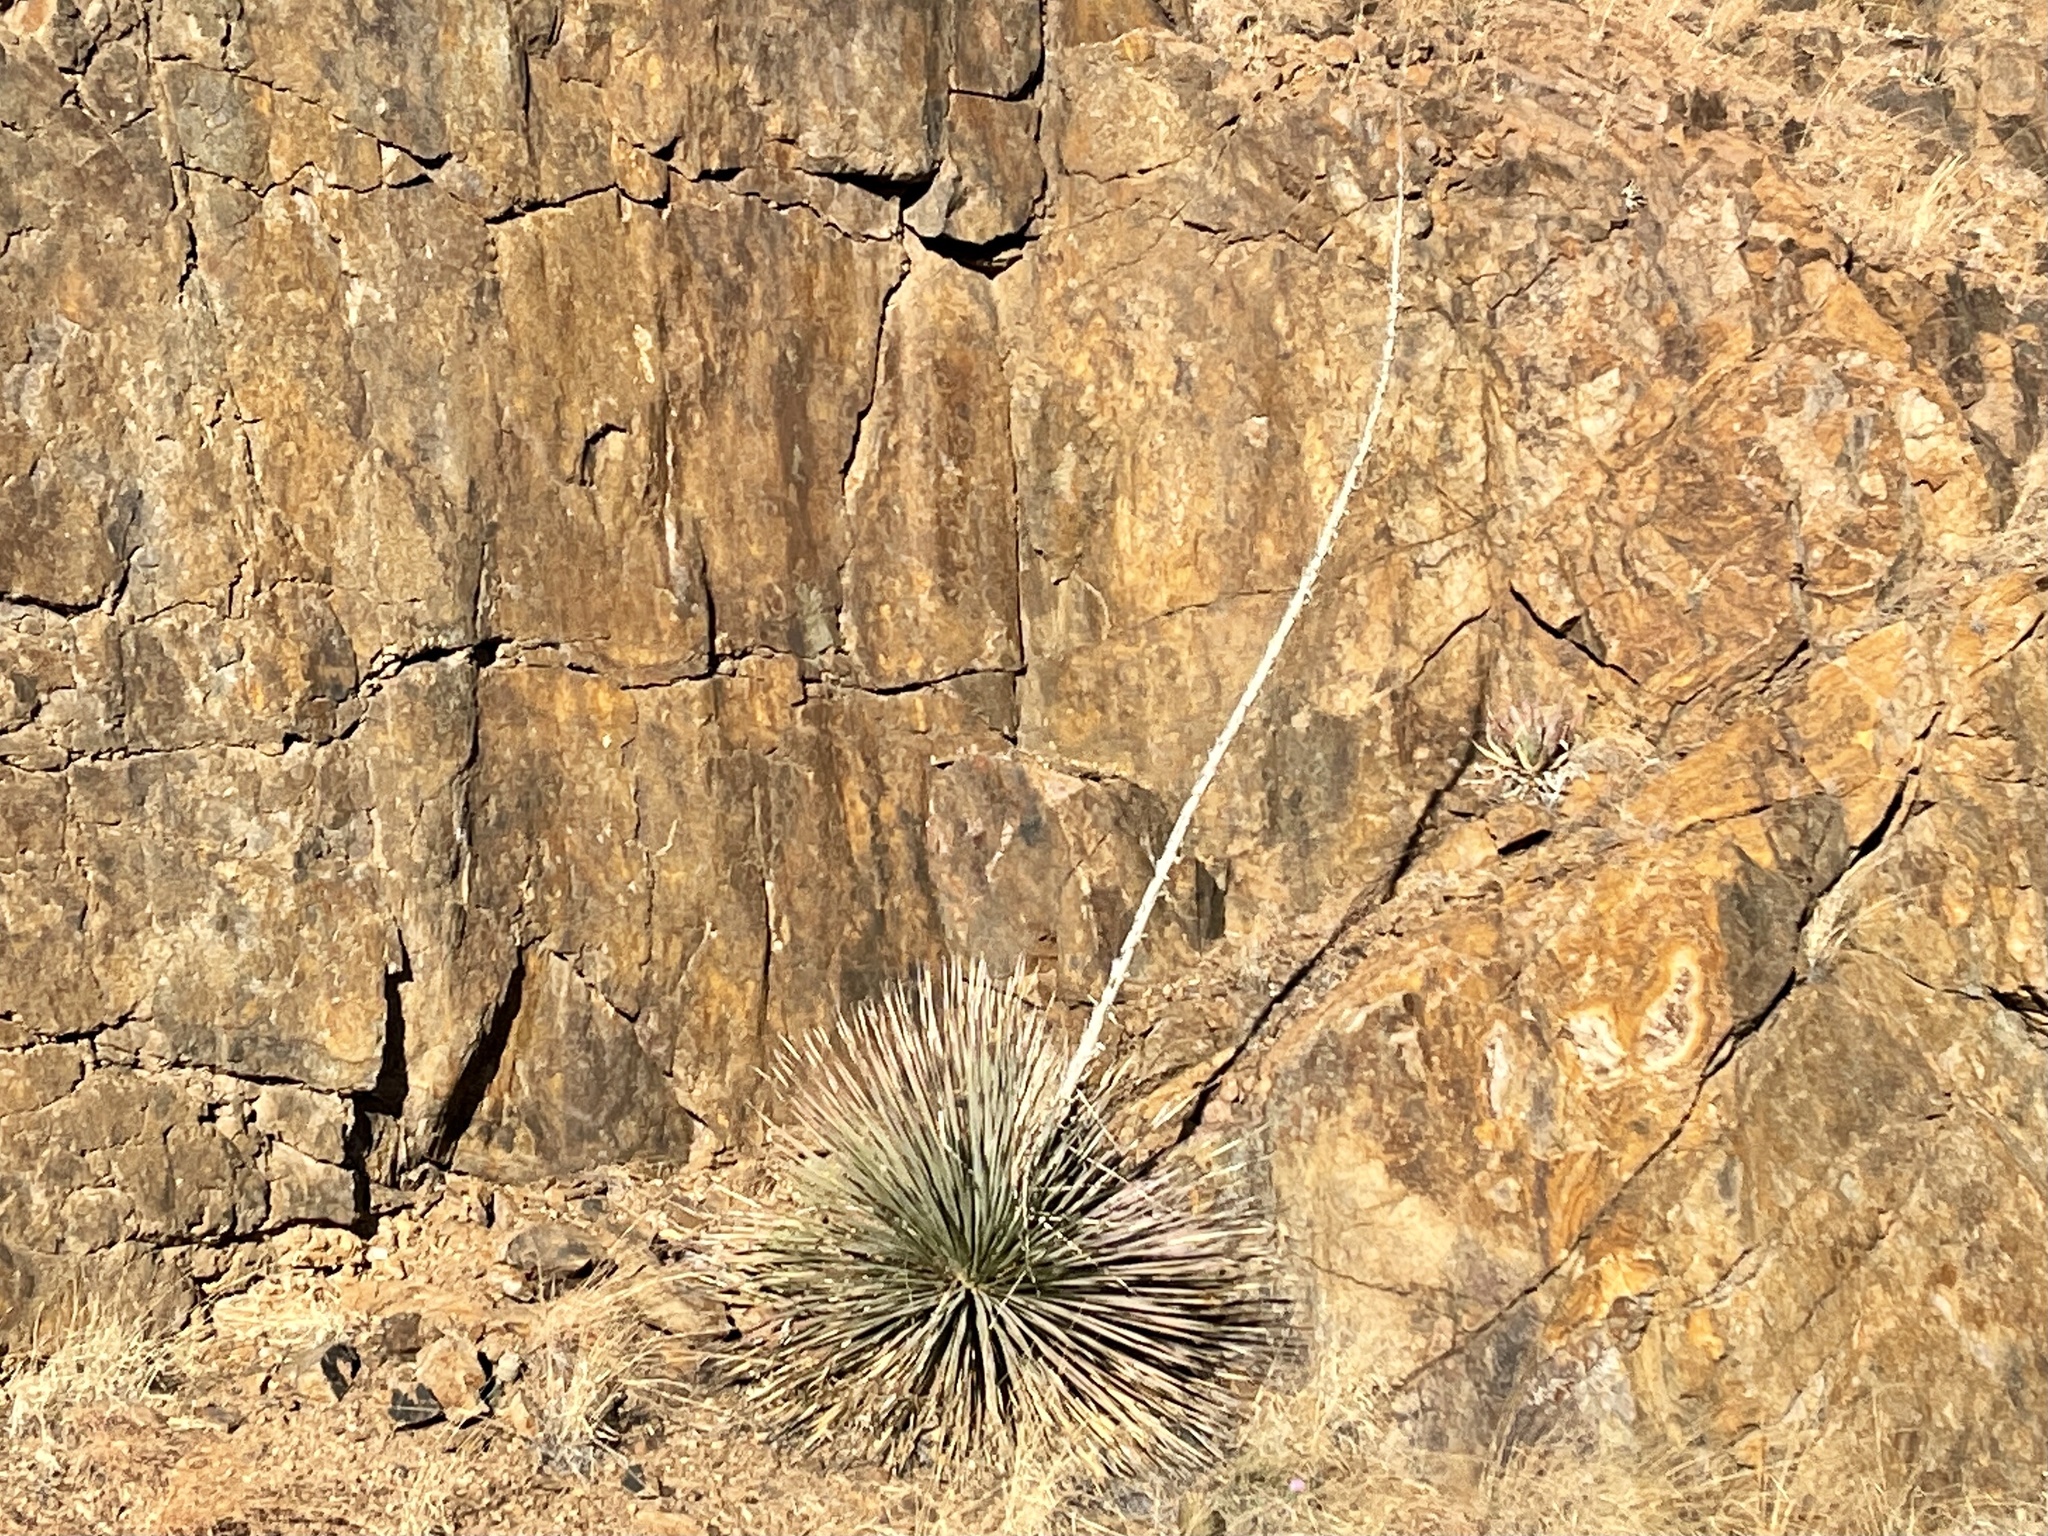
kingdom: Plantae
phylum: Tracheophyta
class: Liliopsida
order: Asparagales
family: Asparagaceae
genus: Dasylirion
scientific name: Dasylirion wheeleri
